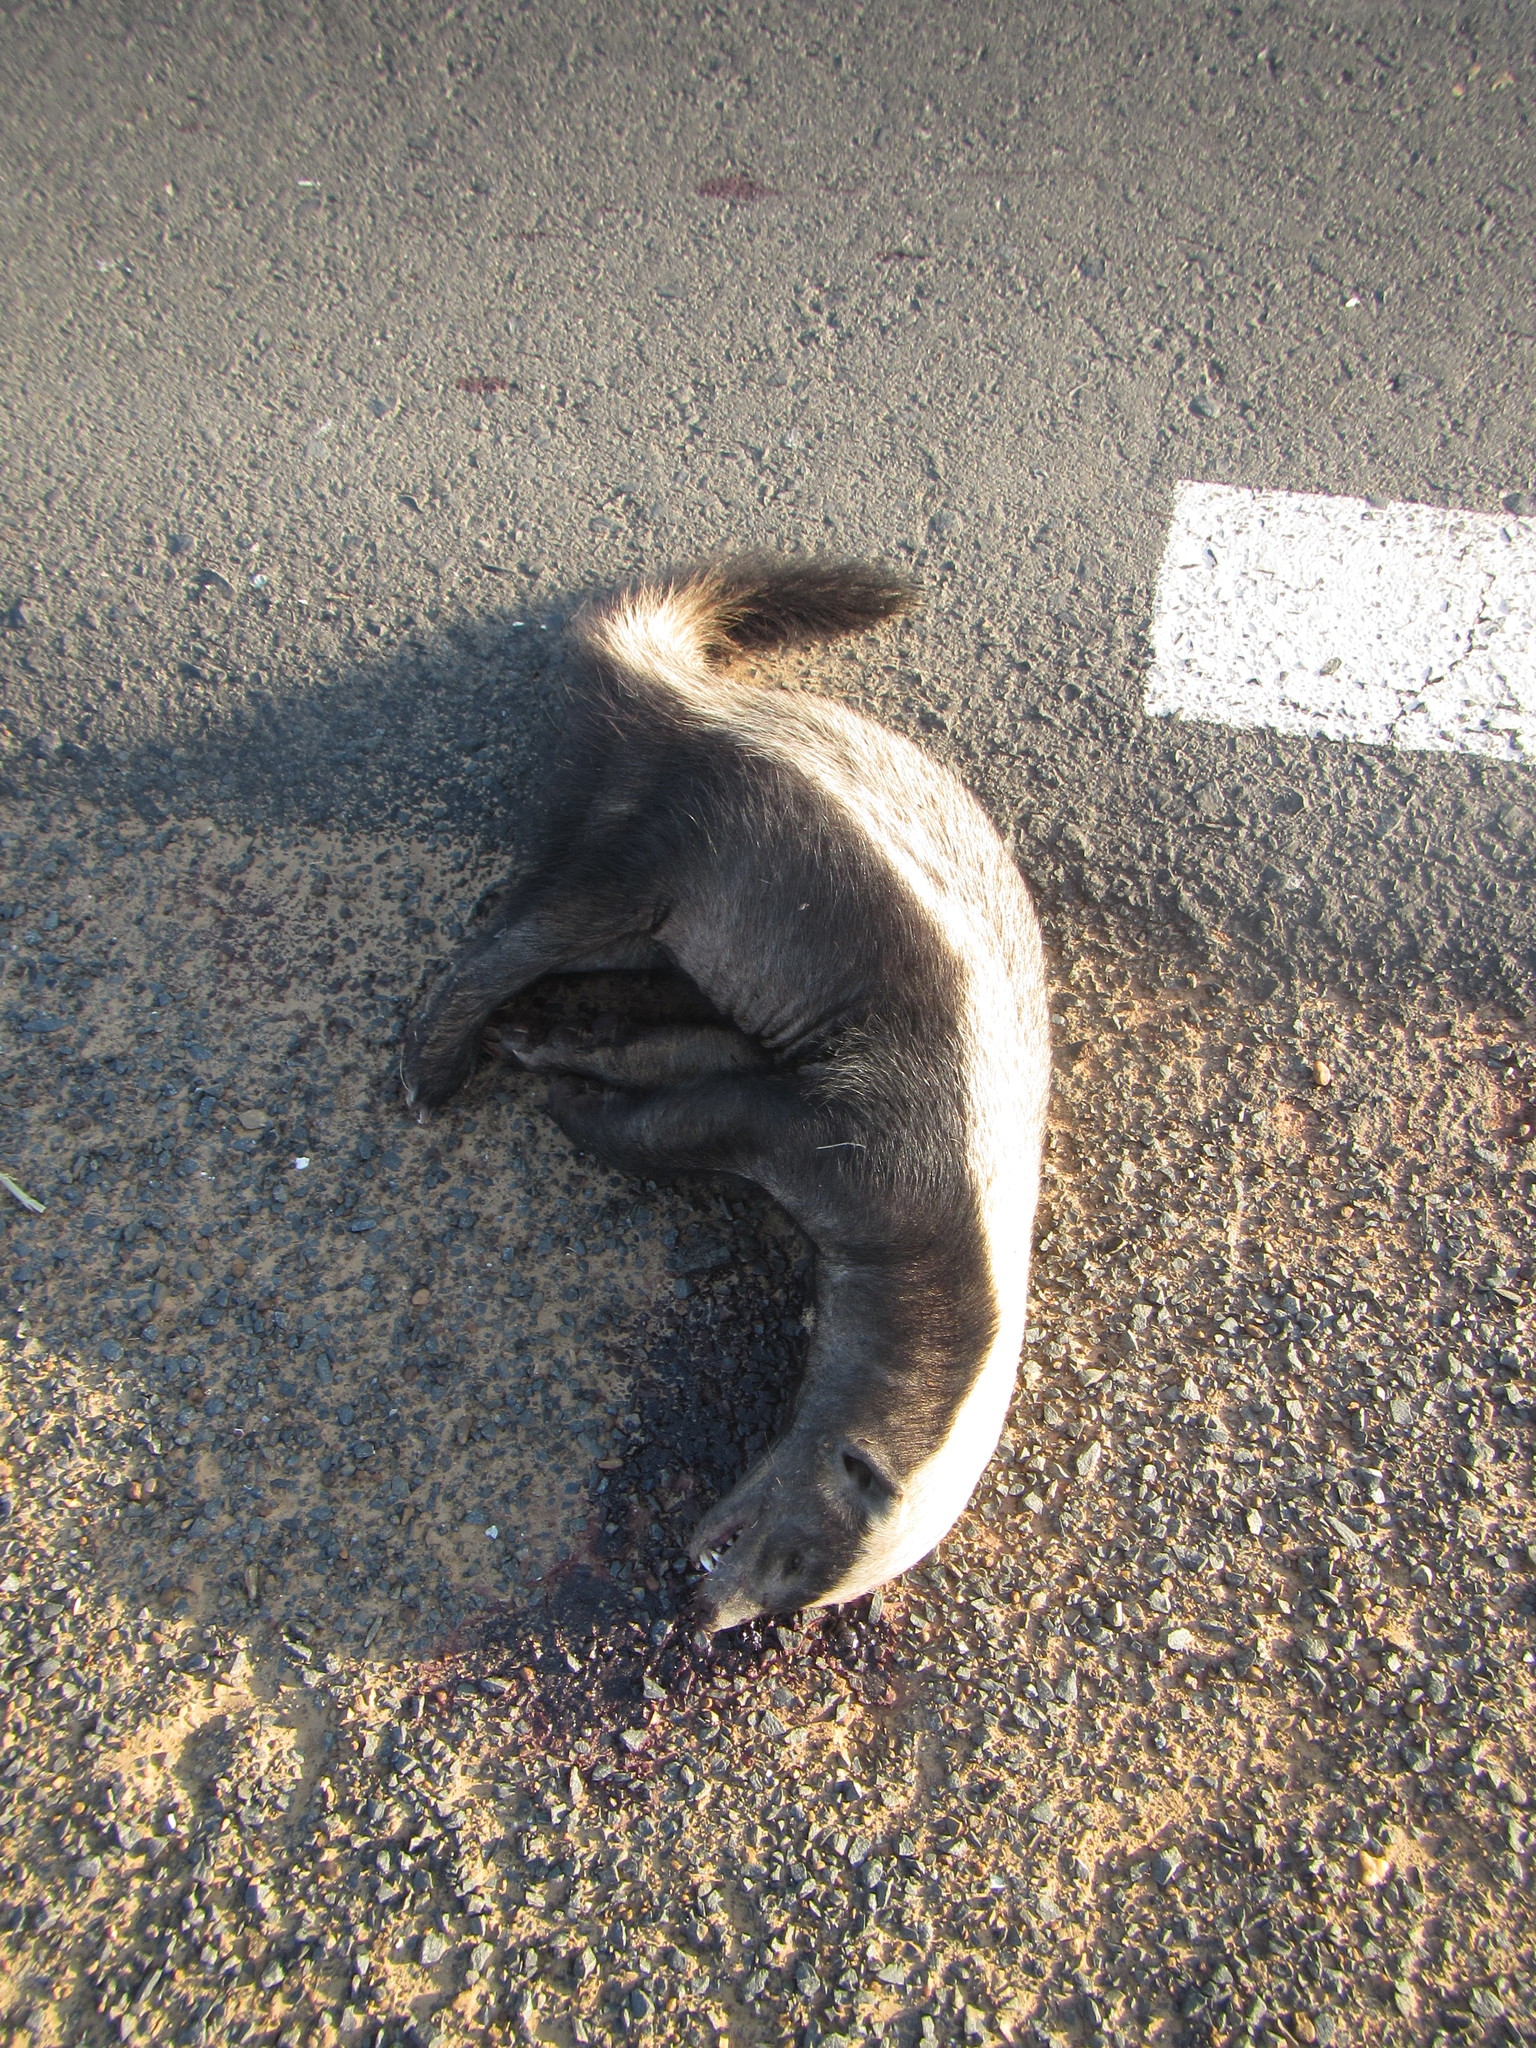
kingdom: Animalia
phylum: Chordata
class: Mammalia
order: Carnivora
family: Mustelidae
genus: Mellivora
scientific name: Mellivora capensis
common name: Honey badger
